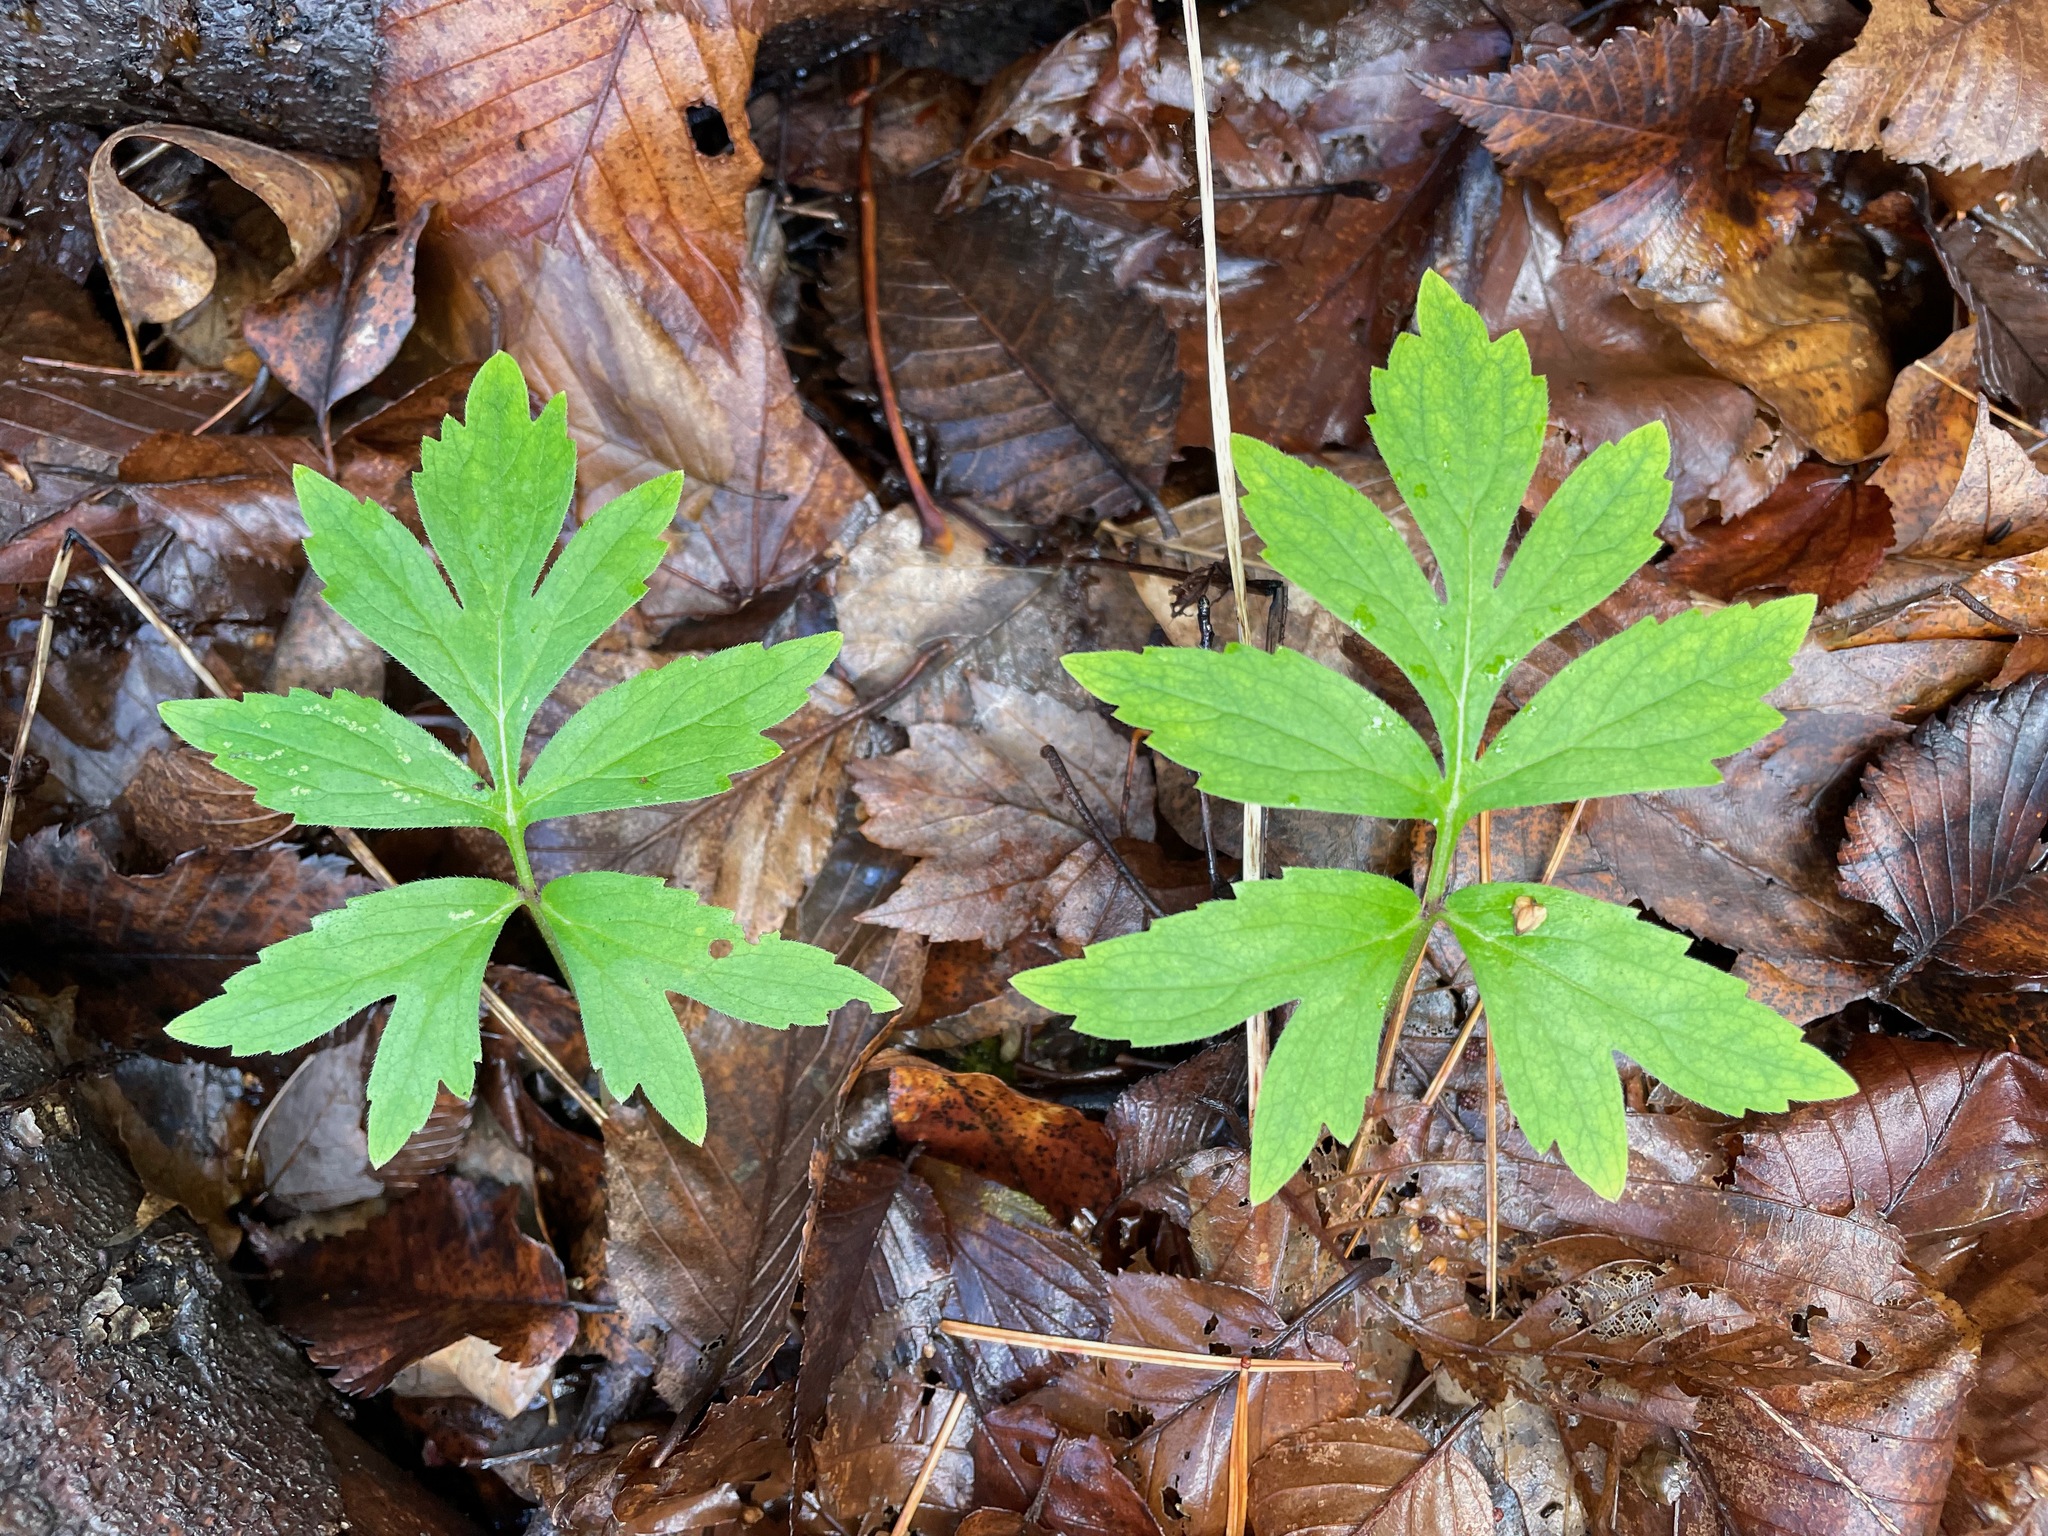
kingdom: Plantae
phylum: Tracheophyta
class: Magnoliopsida
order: Boraginales
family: Hydrophyllaceae
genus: Hydrophyllum
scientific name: Hydrophyllum virginianum
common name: Virginia waterleaf
